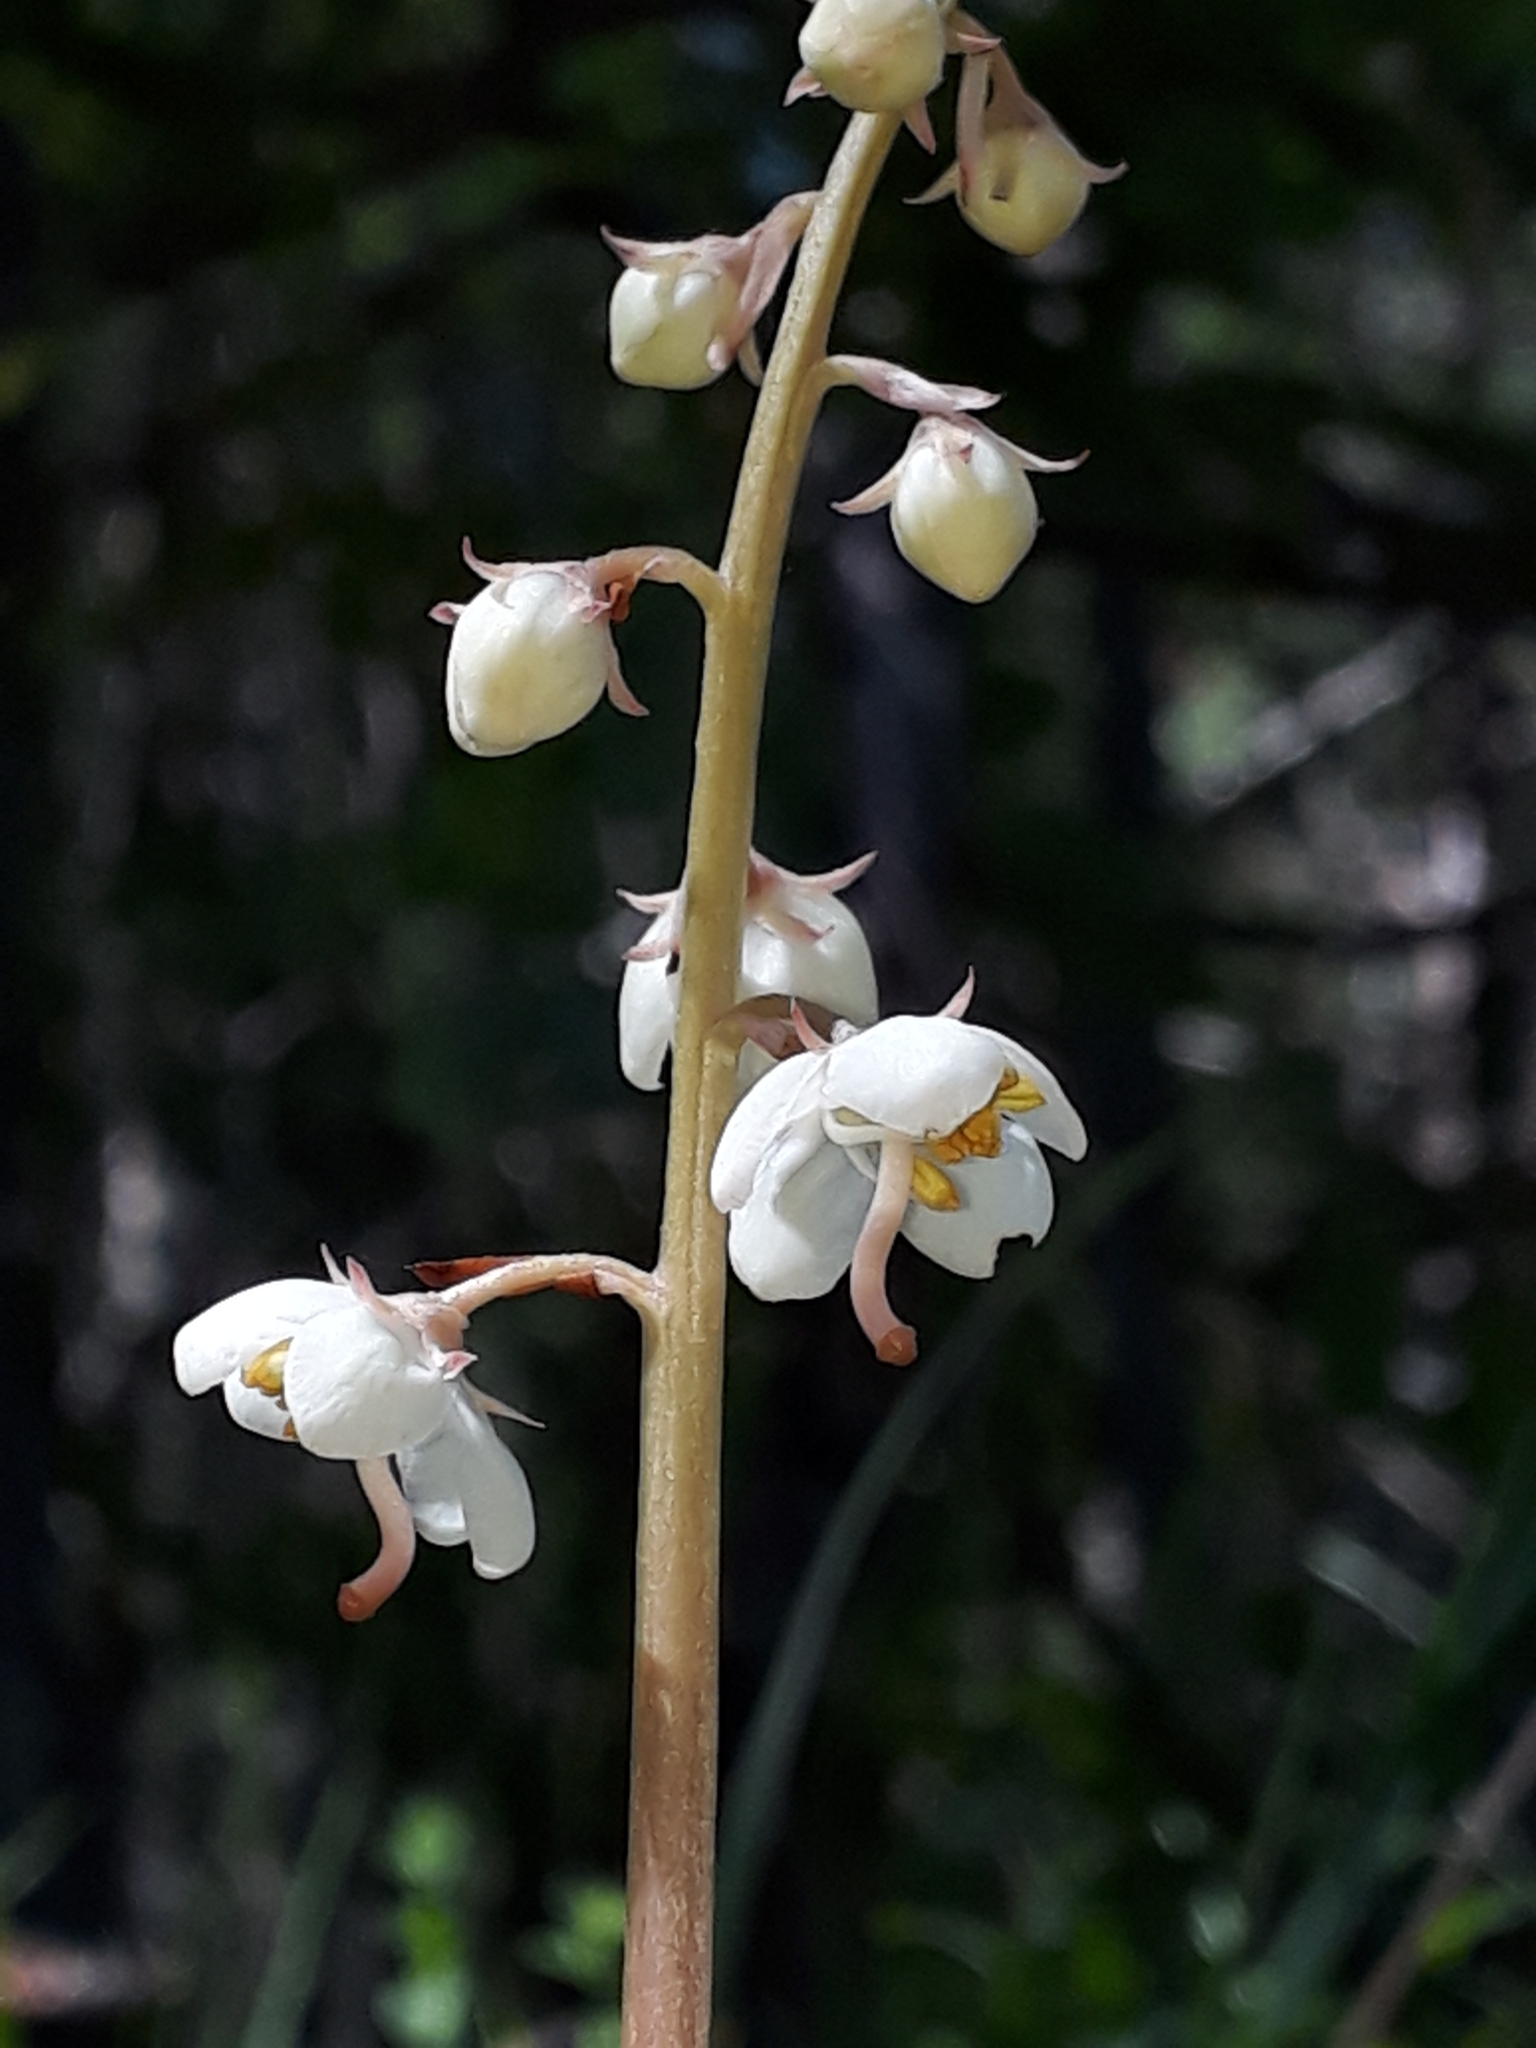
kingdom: Plantae
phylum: Tracheophyta
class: Magnoliopsida
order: Ericales
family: Ericaceae
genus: Pyrola
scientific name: Pyrola rotundifolia
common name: Round-leaved wintergreen
